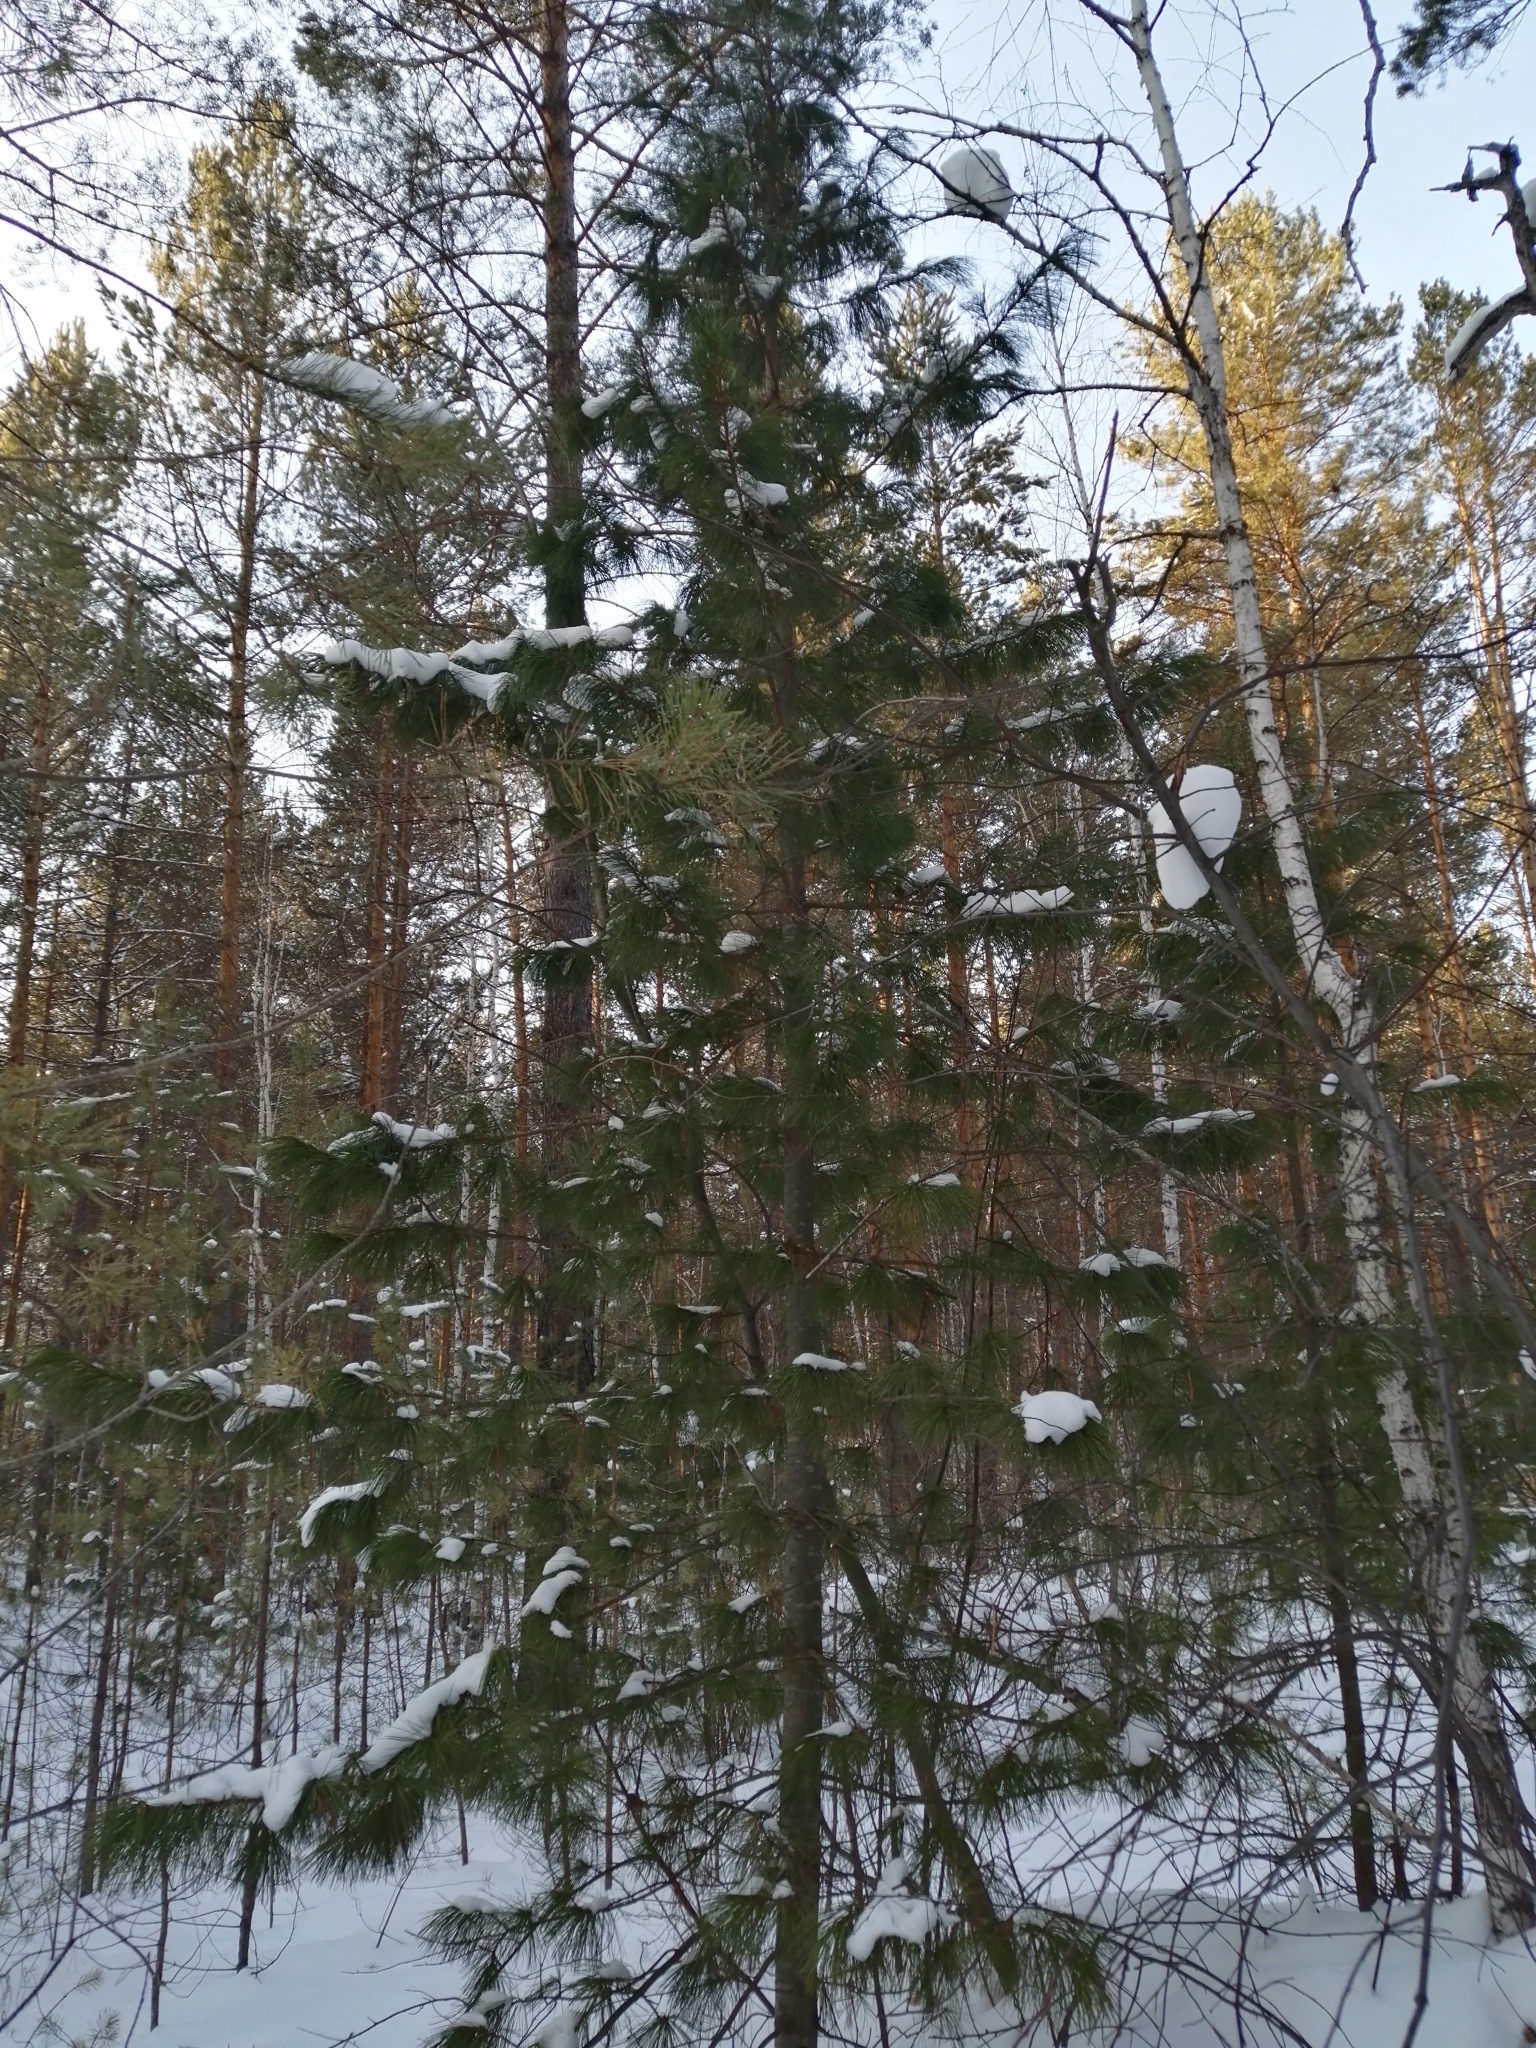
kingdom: Plantae
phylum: Tracheophyta
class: Pinopsida
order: Pinales
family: Pinaceae
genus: Pinus
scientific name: Pinus sibirica
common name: Siberian pine
